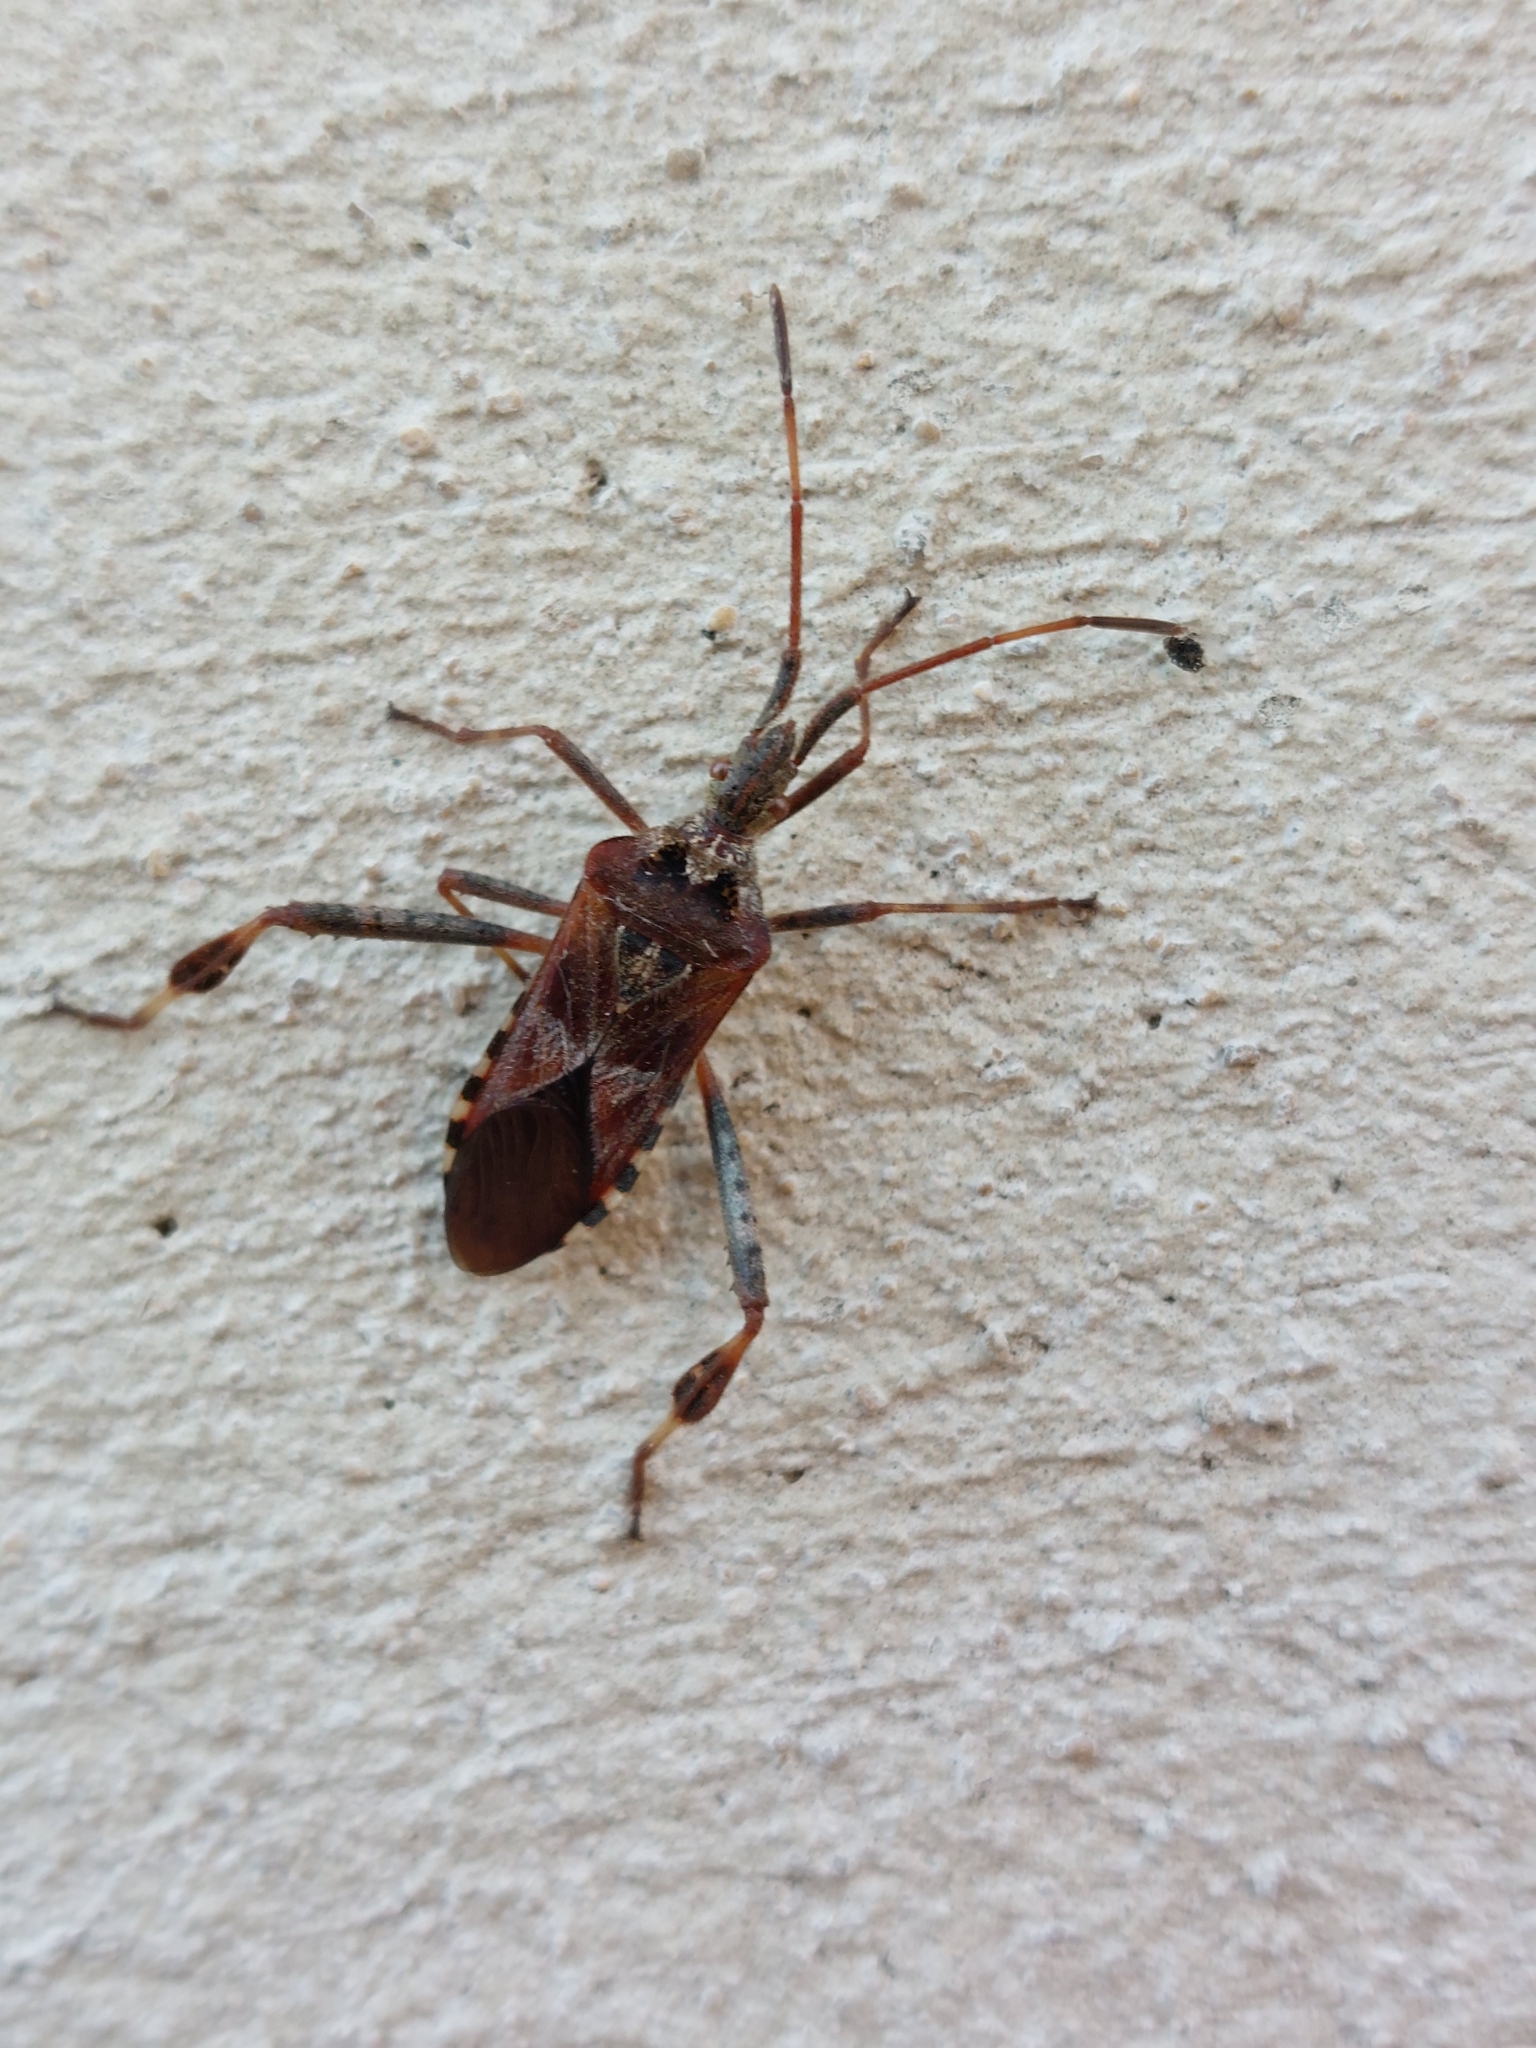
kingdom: Animalia
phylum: Arthropoda
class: Insecta
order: Hemiptera
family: Coreidae
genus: Leptoglossus
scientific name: Leptoglossus occidentalis
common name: Western conifer-seed bug
